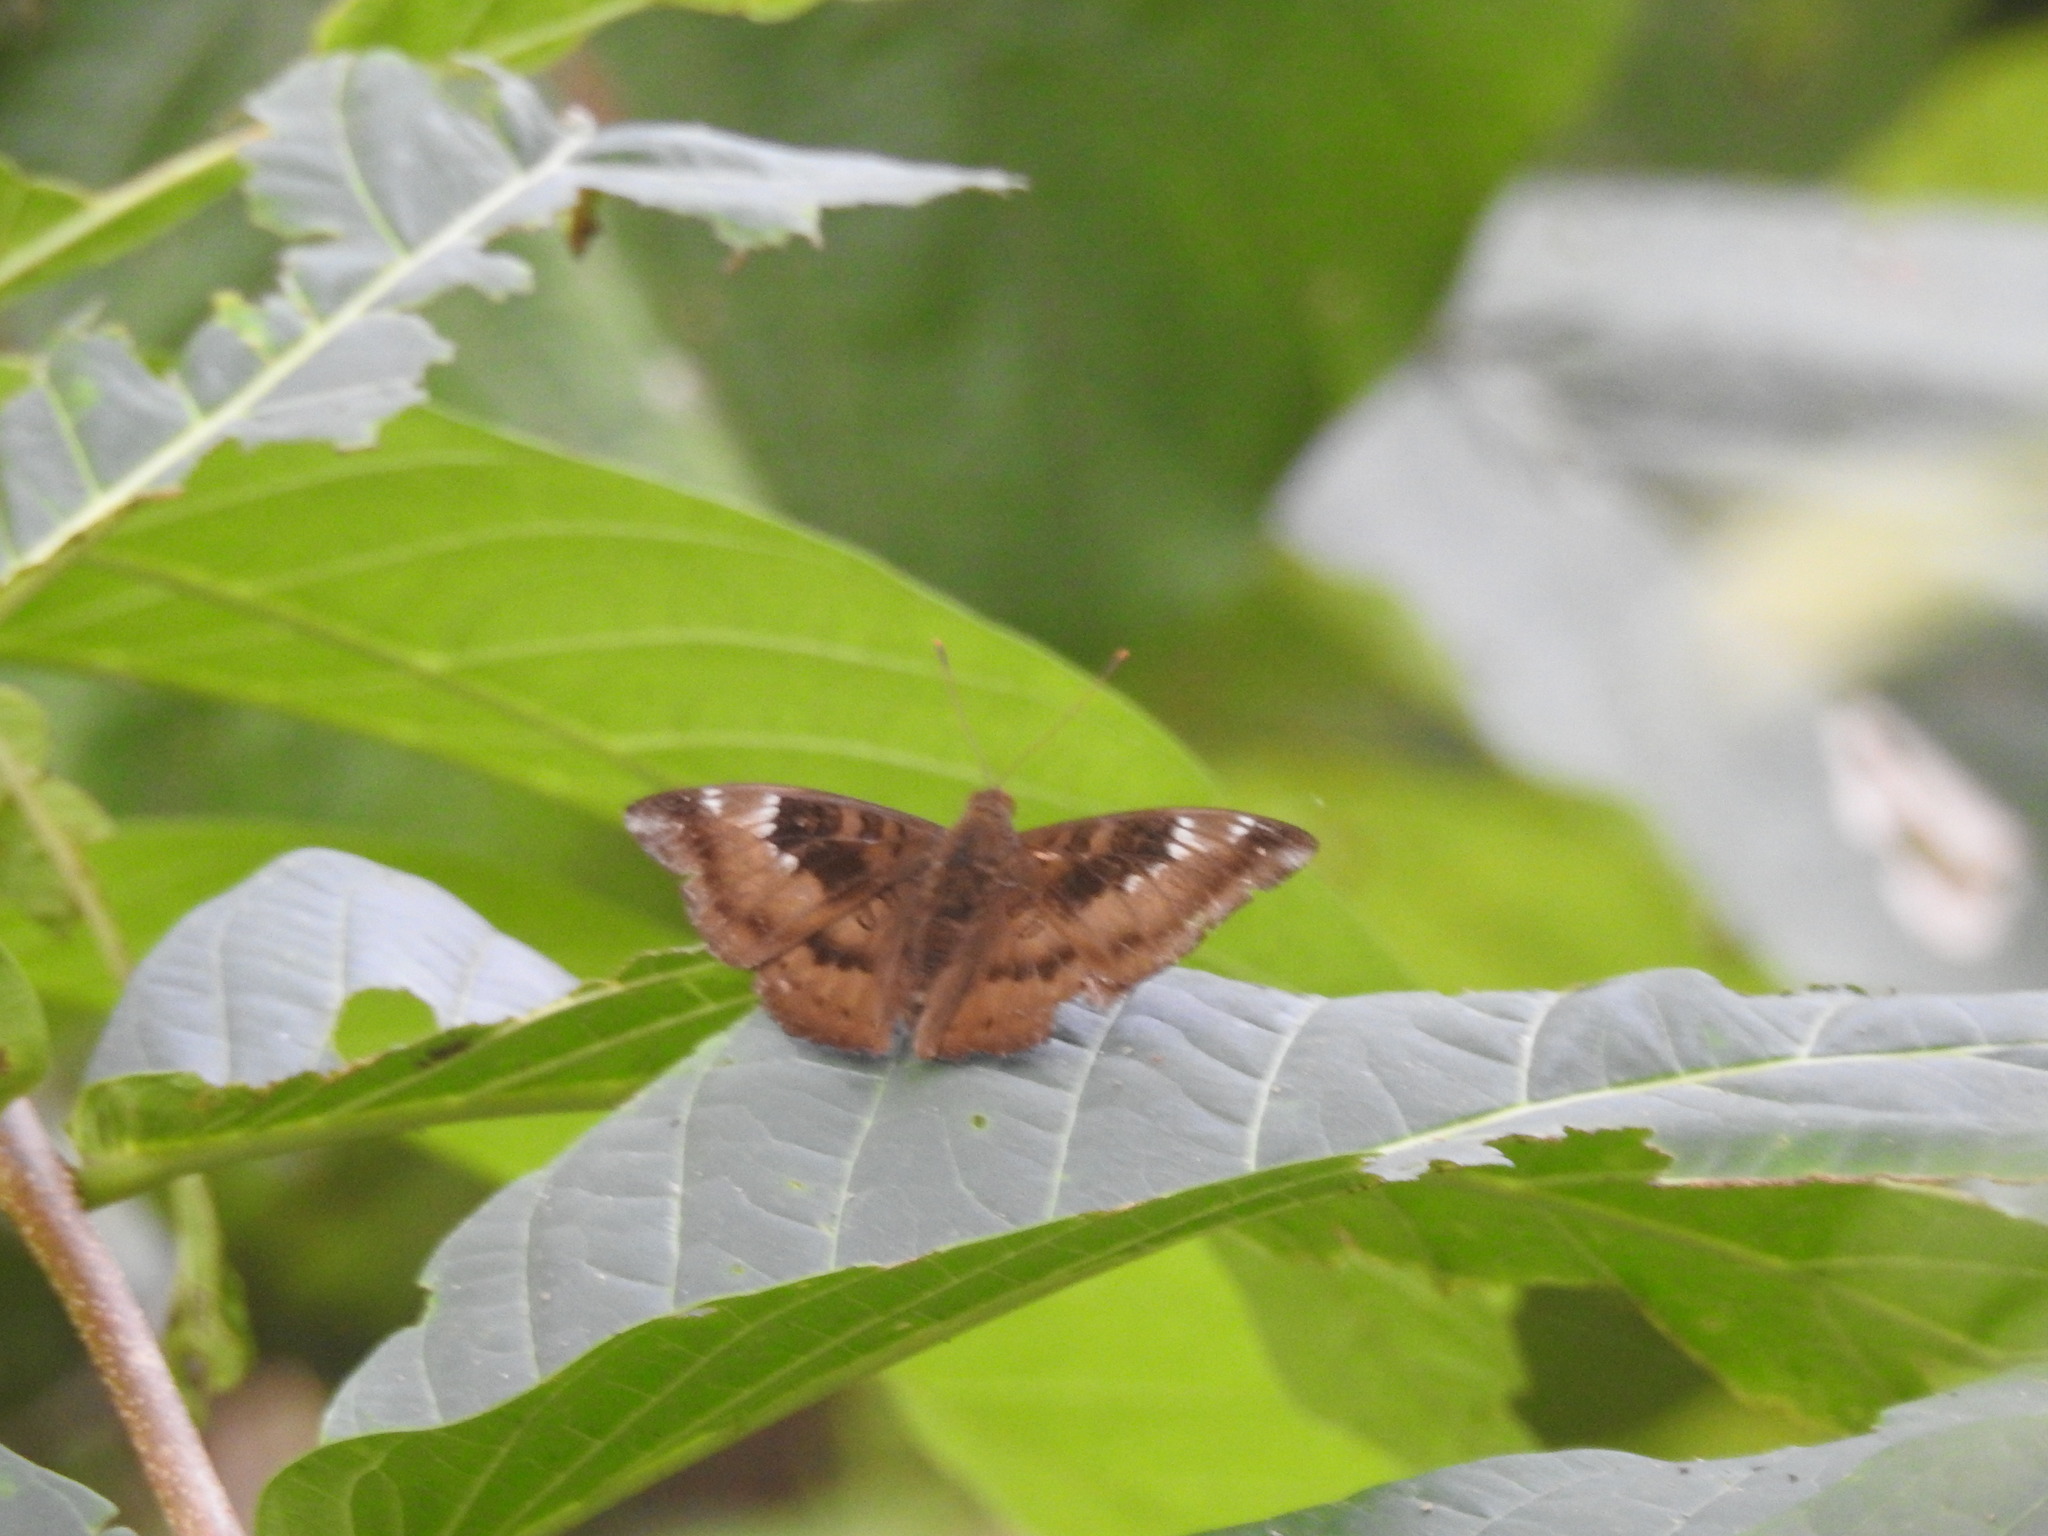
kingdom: Animalia
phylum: Arthropoda
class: Insecta
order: Lepidoptera
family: Nymphalidae
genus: Euthalia
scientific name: Euthalia aconthea
